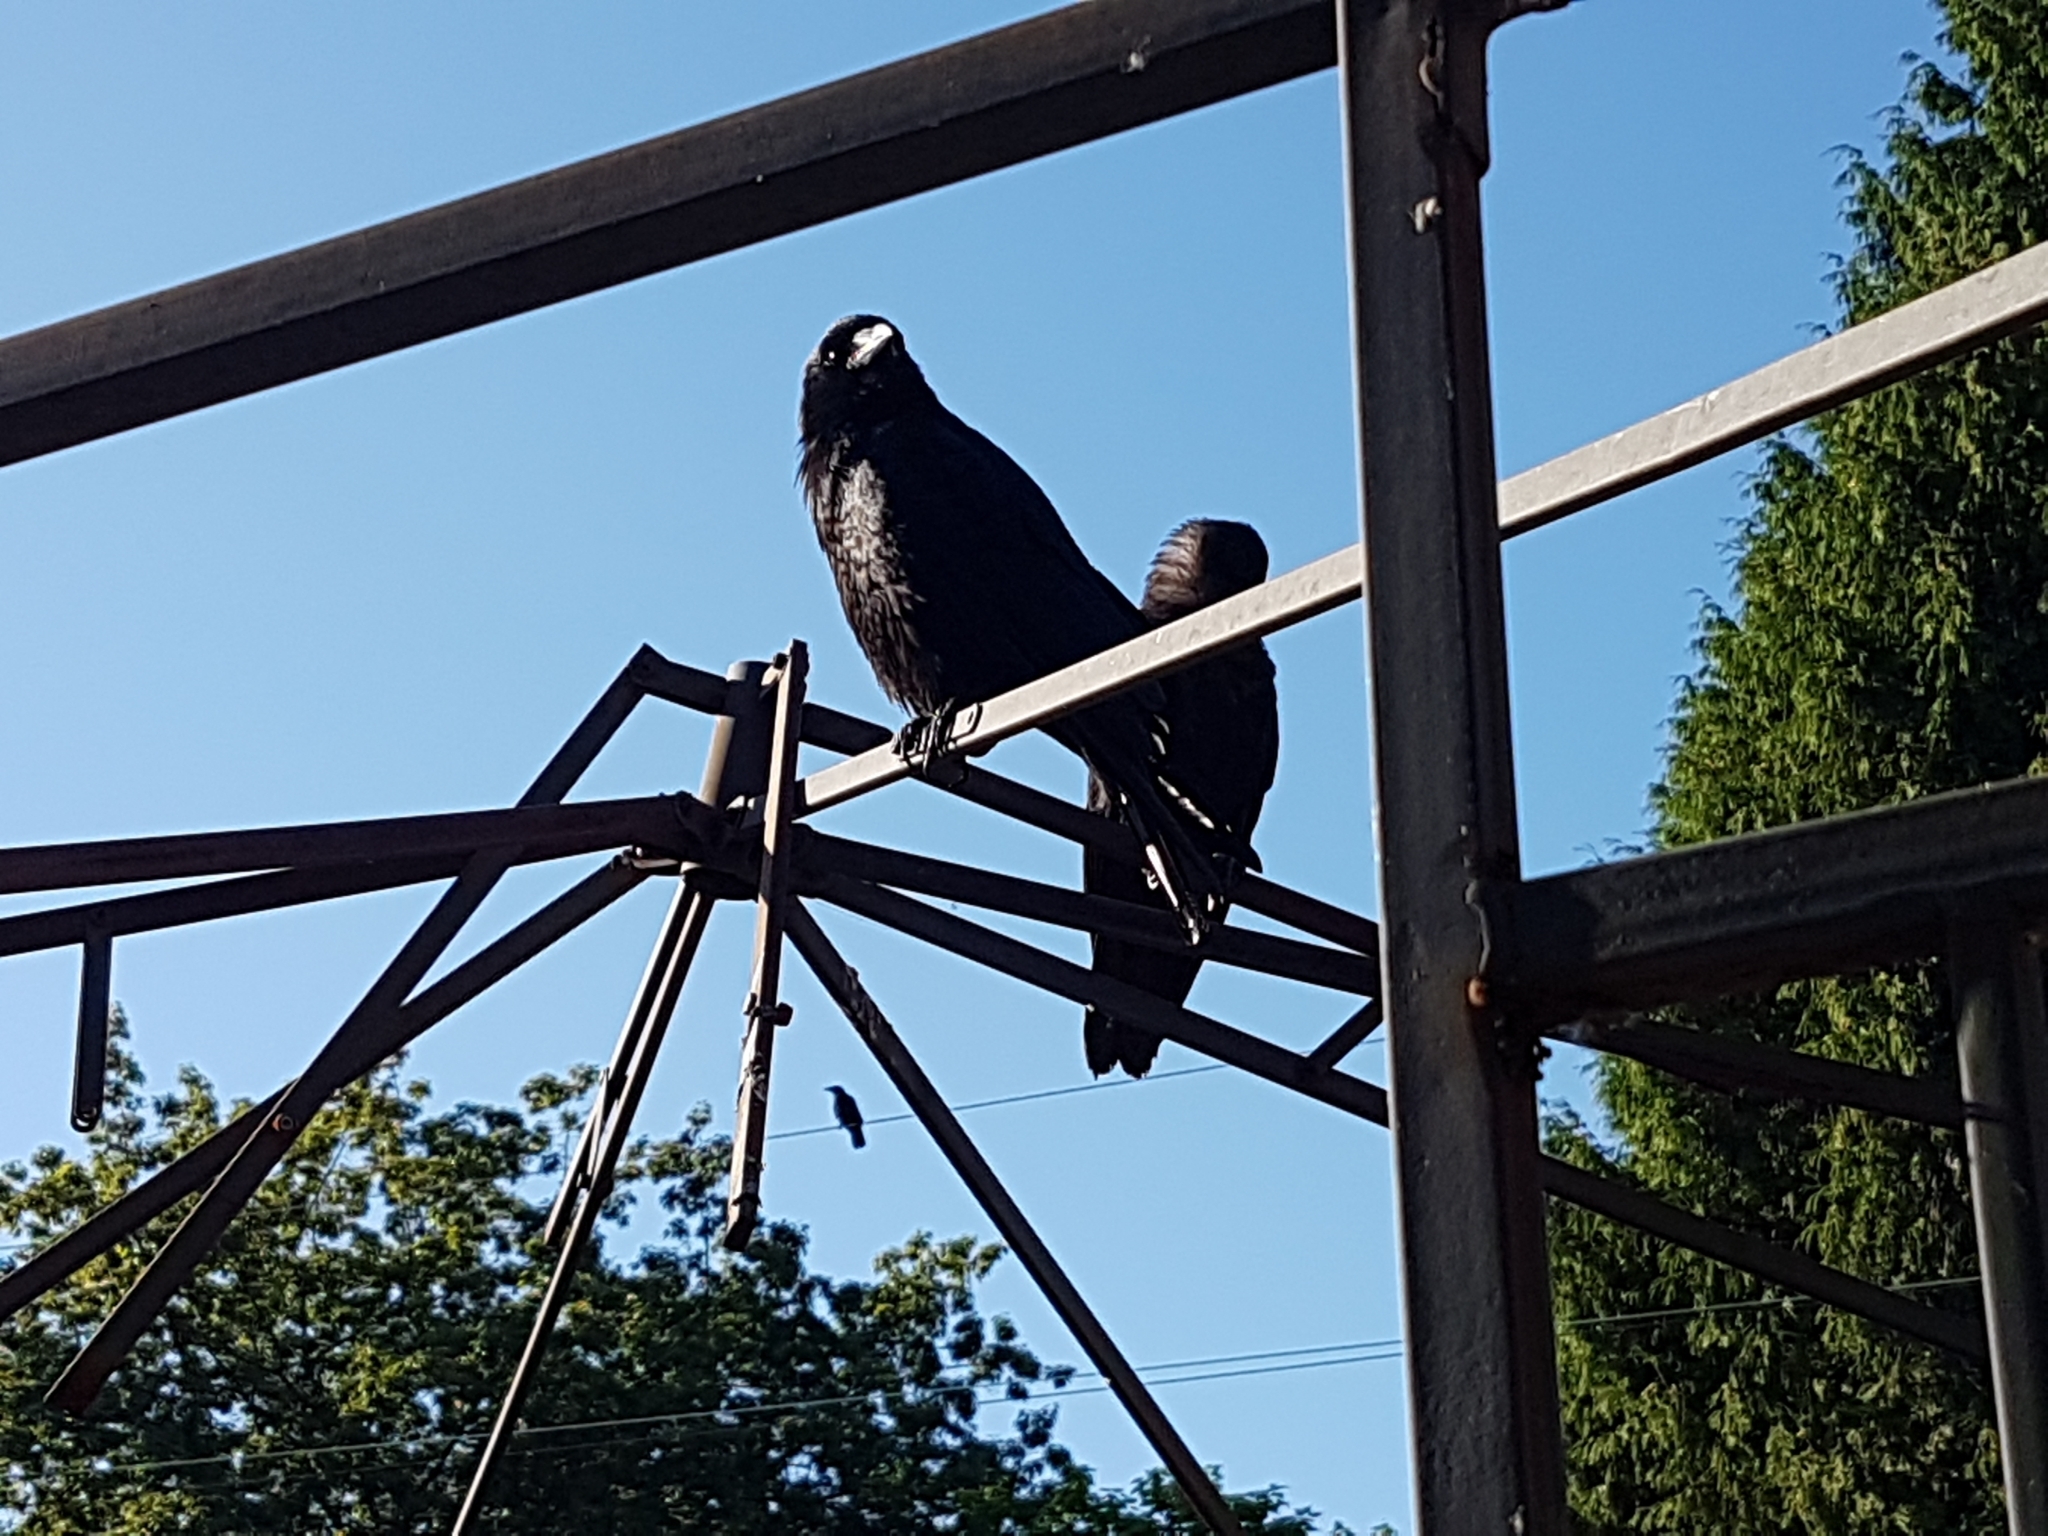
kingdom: Animalia
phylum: Chordata
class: Aves
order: Passeriformes
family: Corvidae
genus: Corvus
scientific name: Corvus brachyrhynchos
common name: American crow
